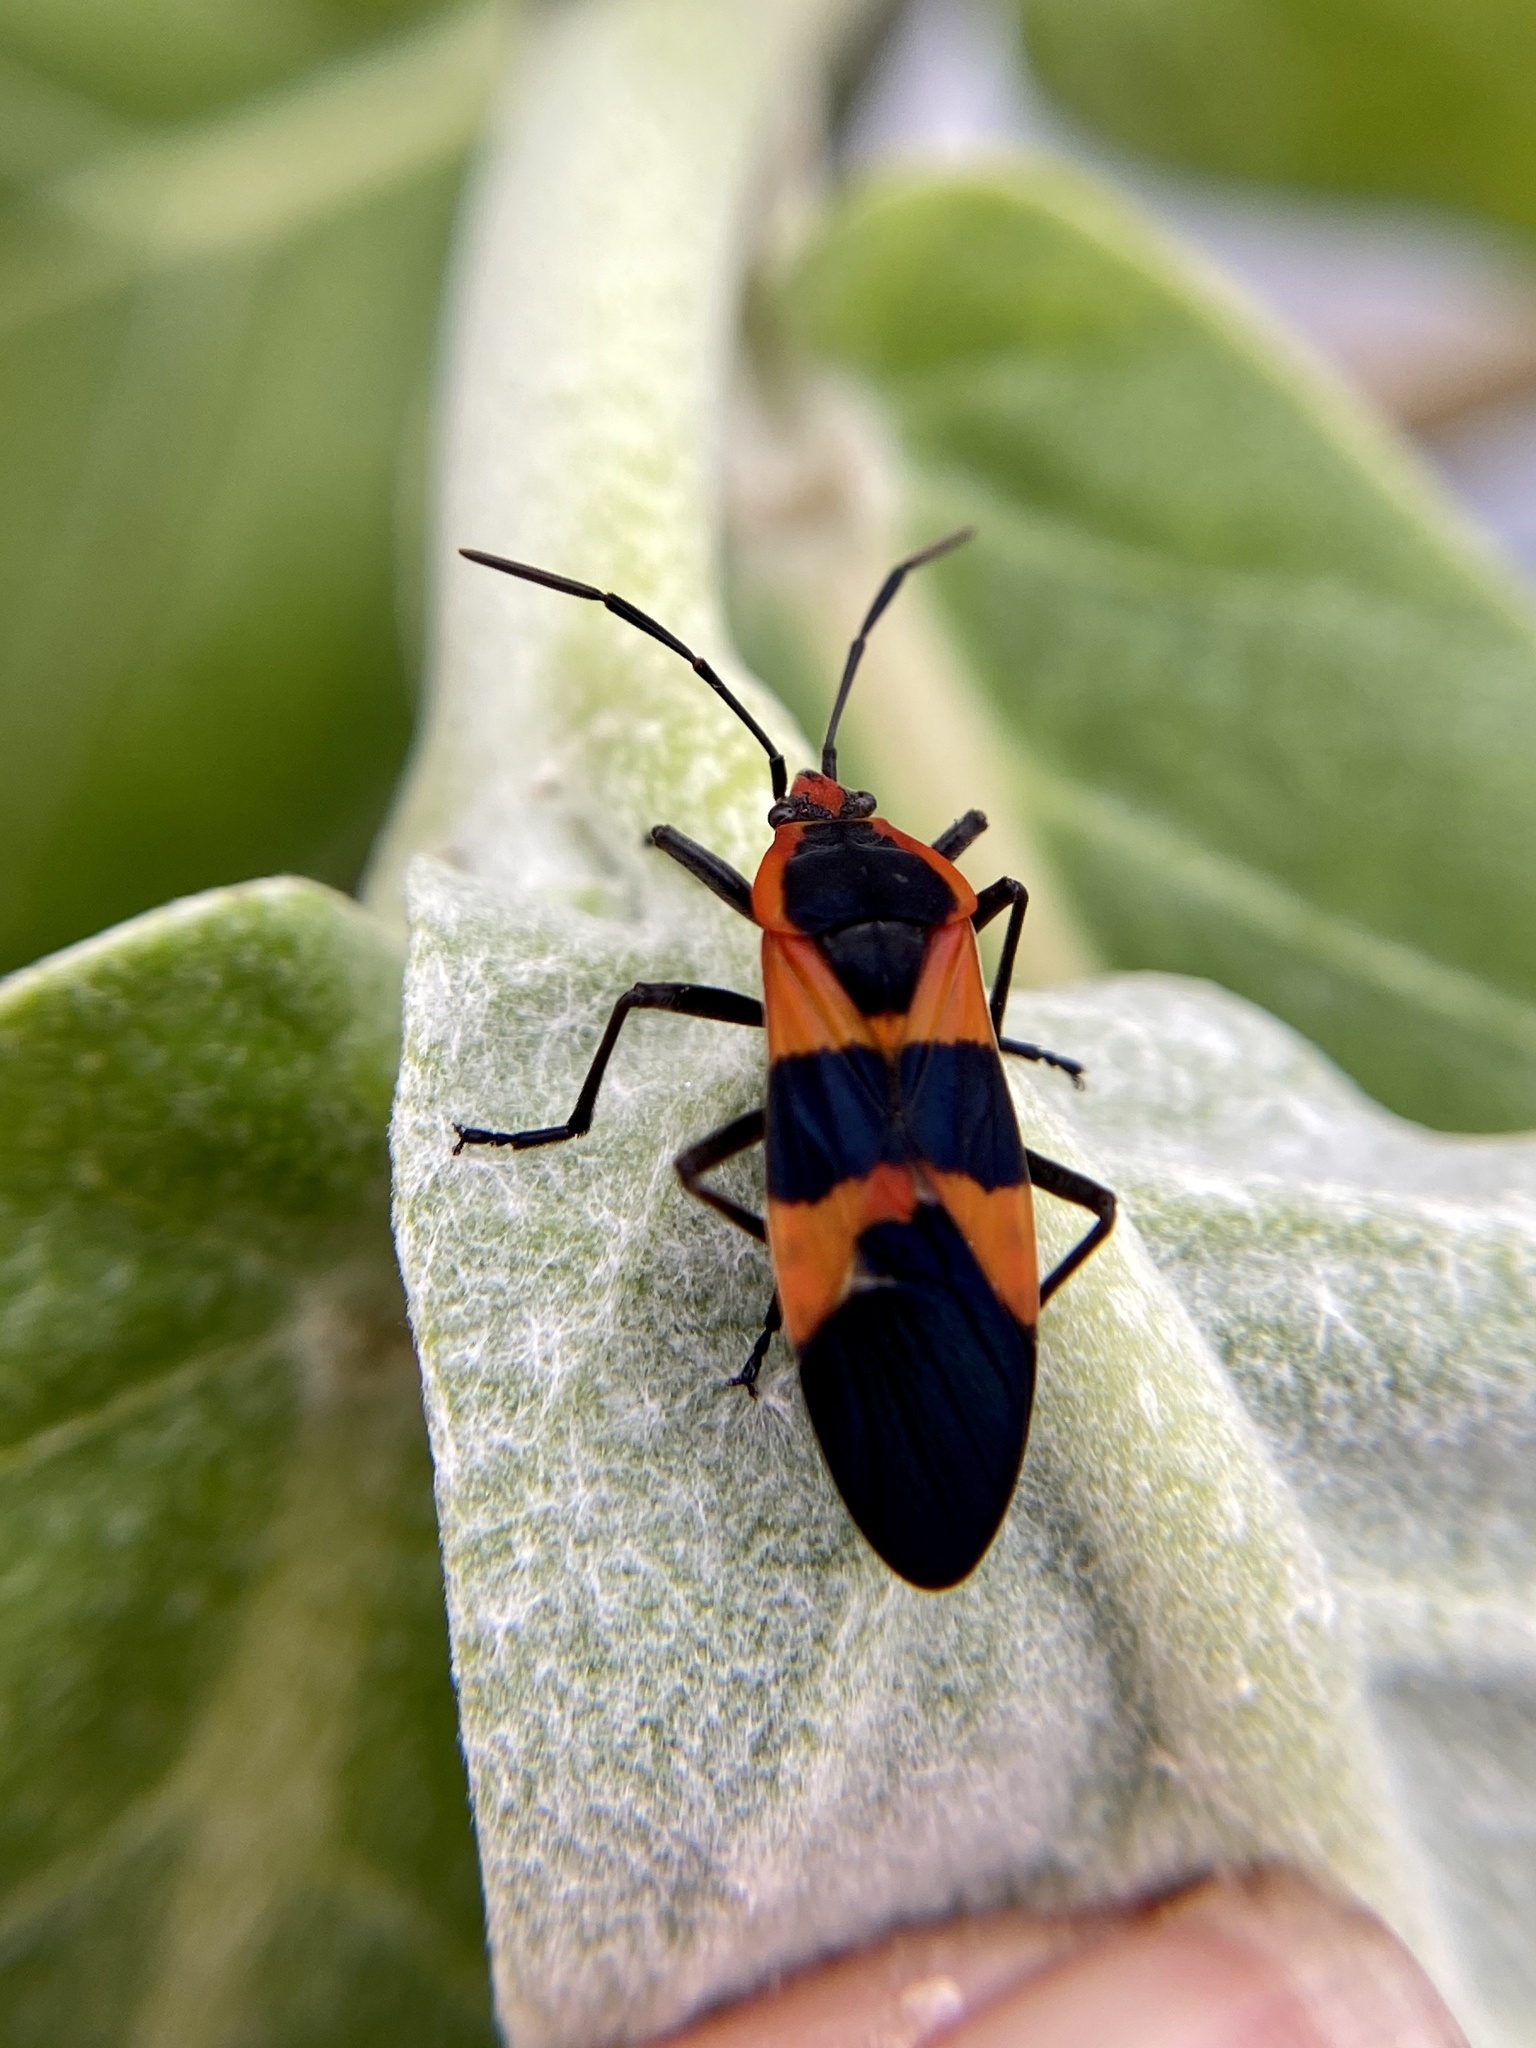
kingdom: Animalia
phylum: Arthropoda
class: Insecta
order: Hemiptera
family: Lygaeidae
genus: Oncopeltus
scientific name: Oncopeltus fasciatus
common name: Large milkweed bug
